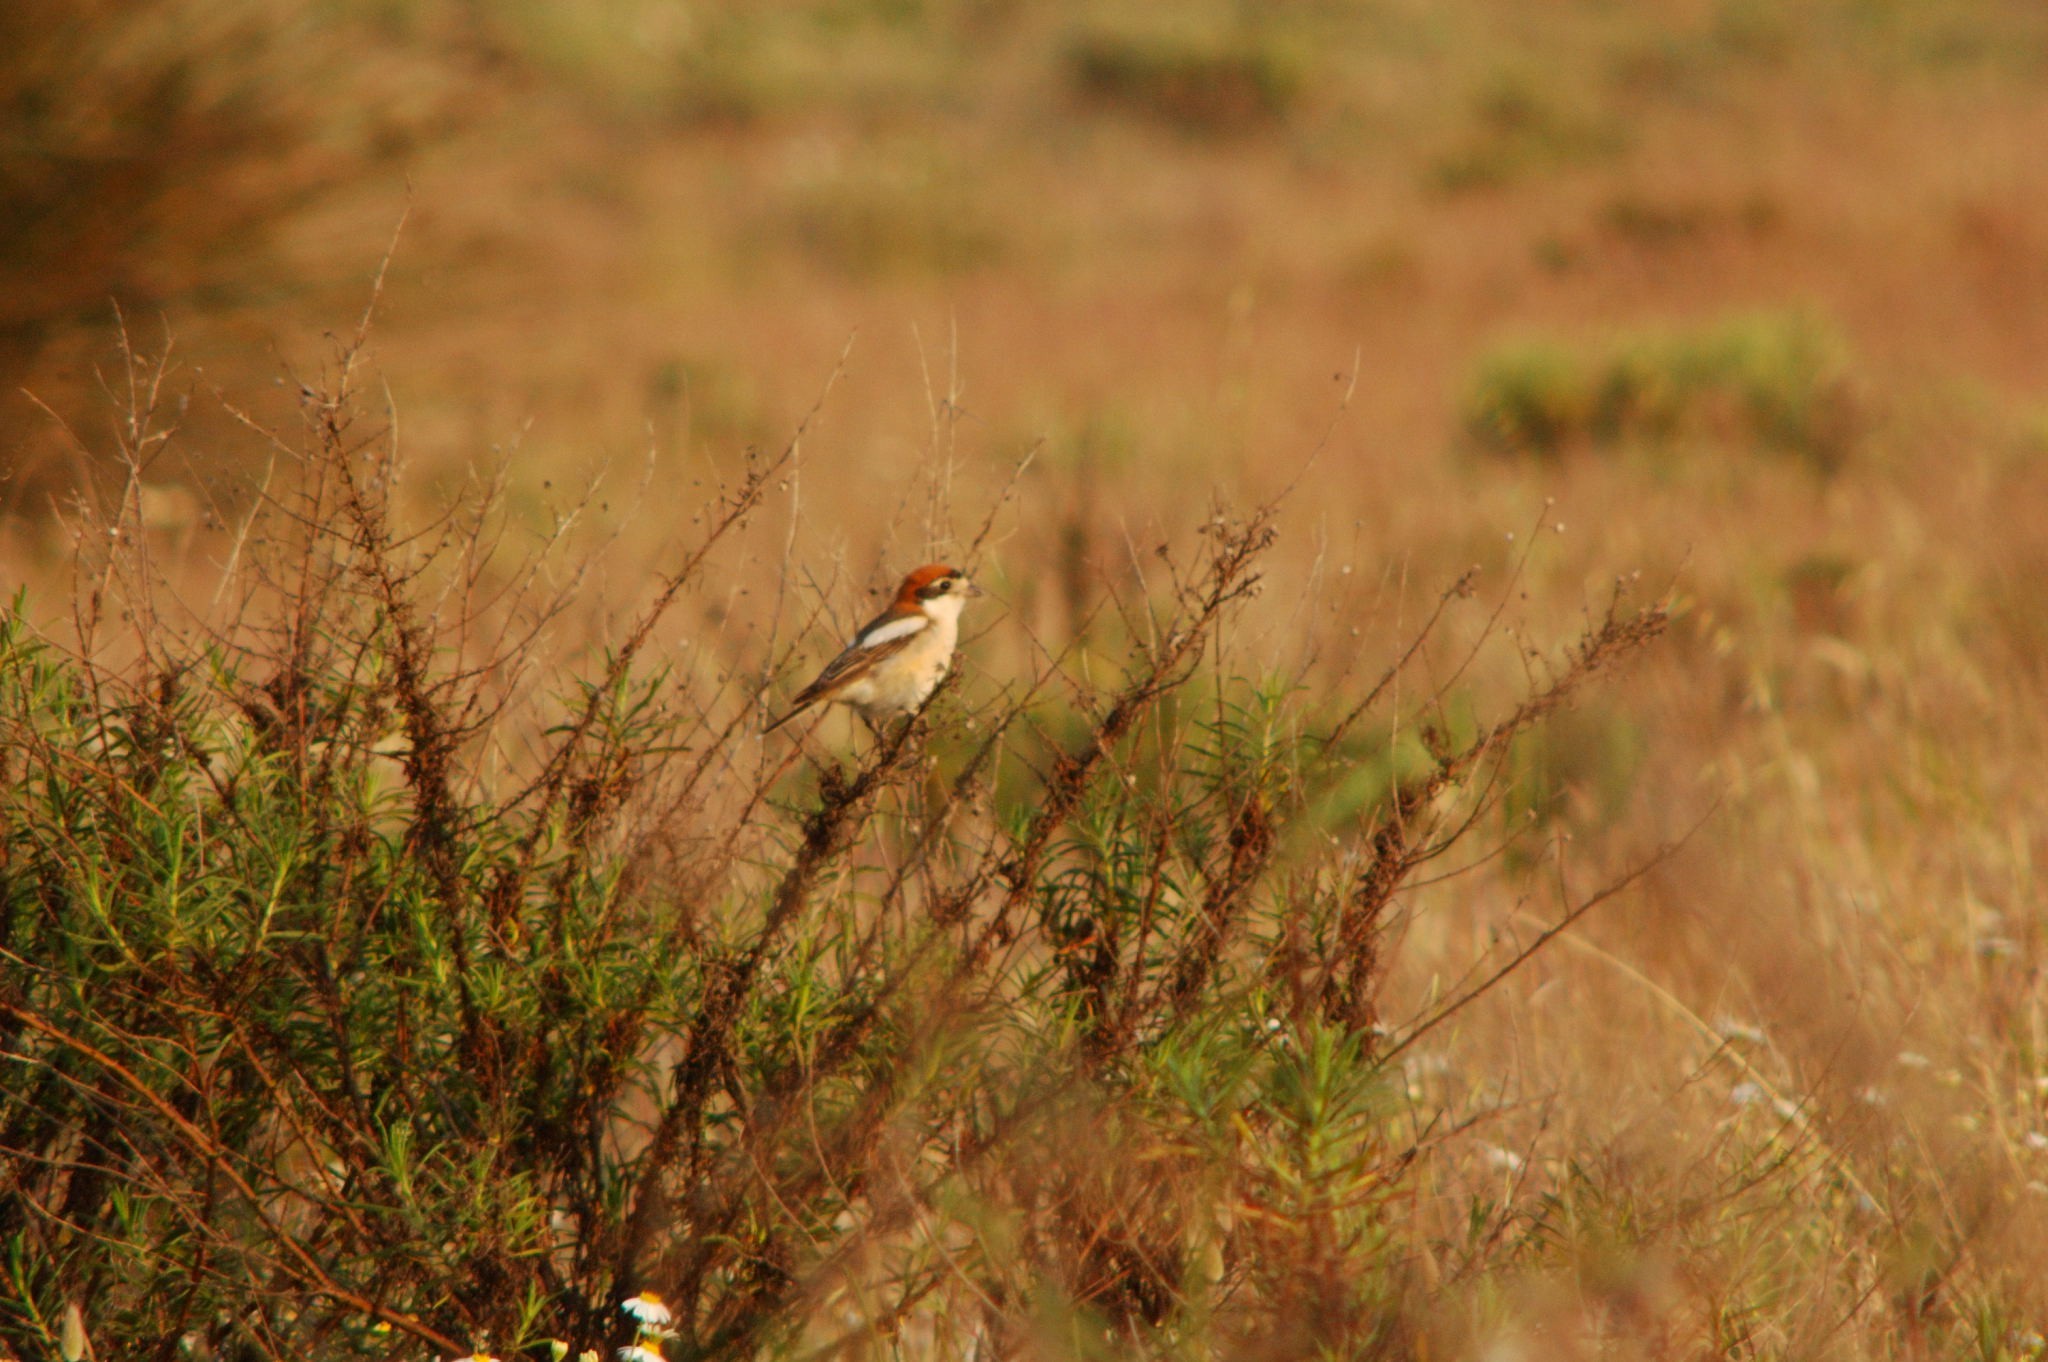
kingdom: Animalia
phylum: Chordata
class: Aves
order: Passeriformes
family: Laniidae
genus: Lanius
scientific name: Lanius senator
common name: Woodchat shrike
